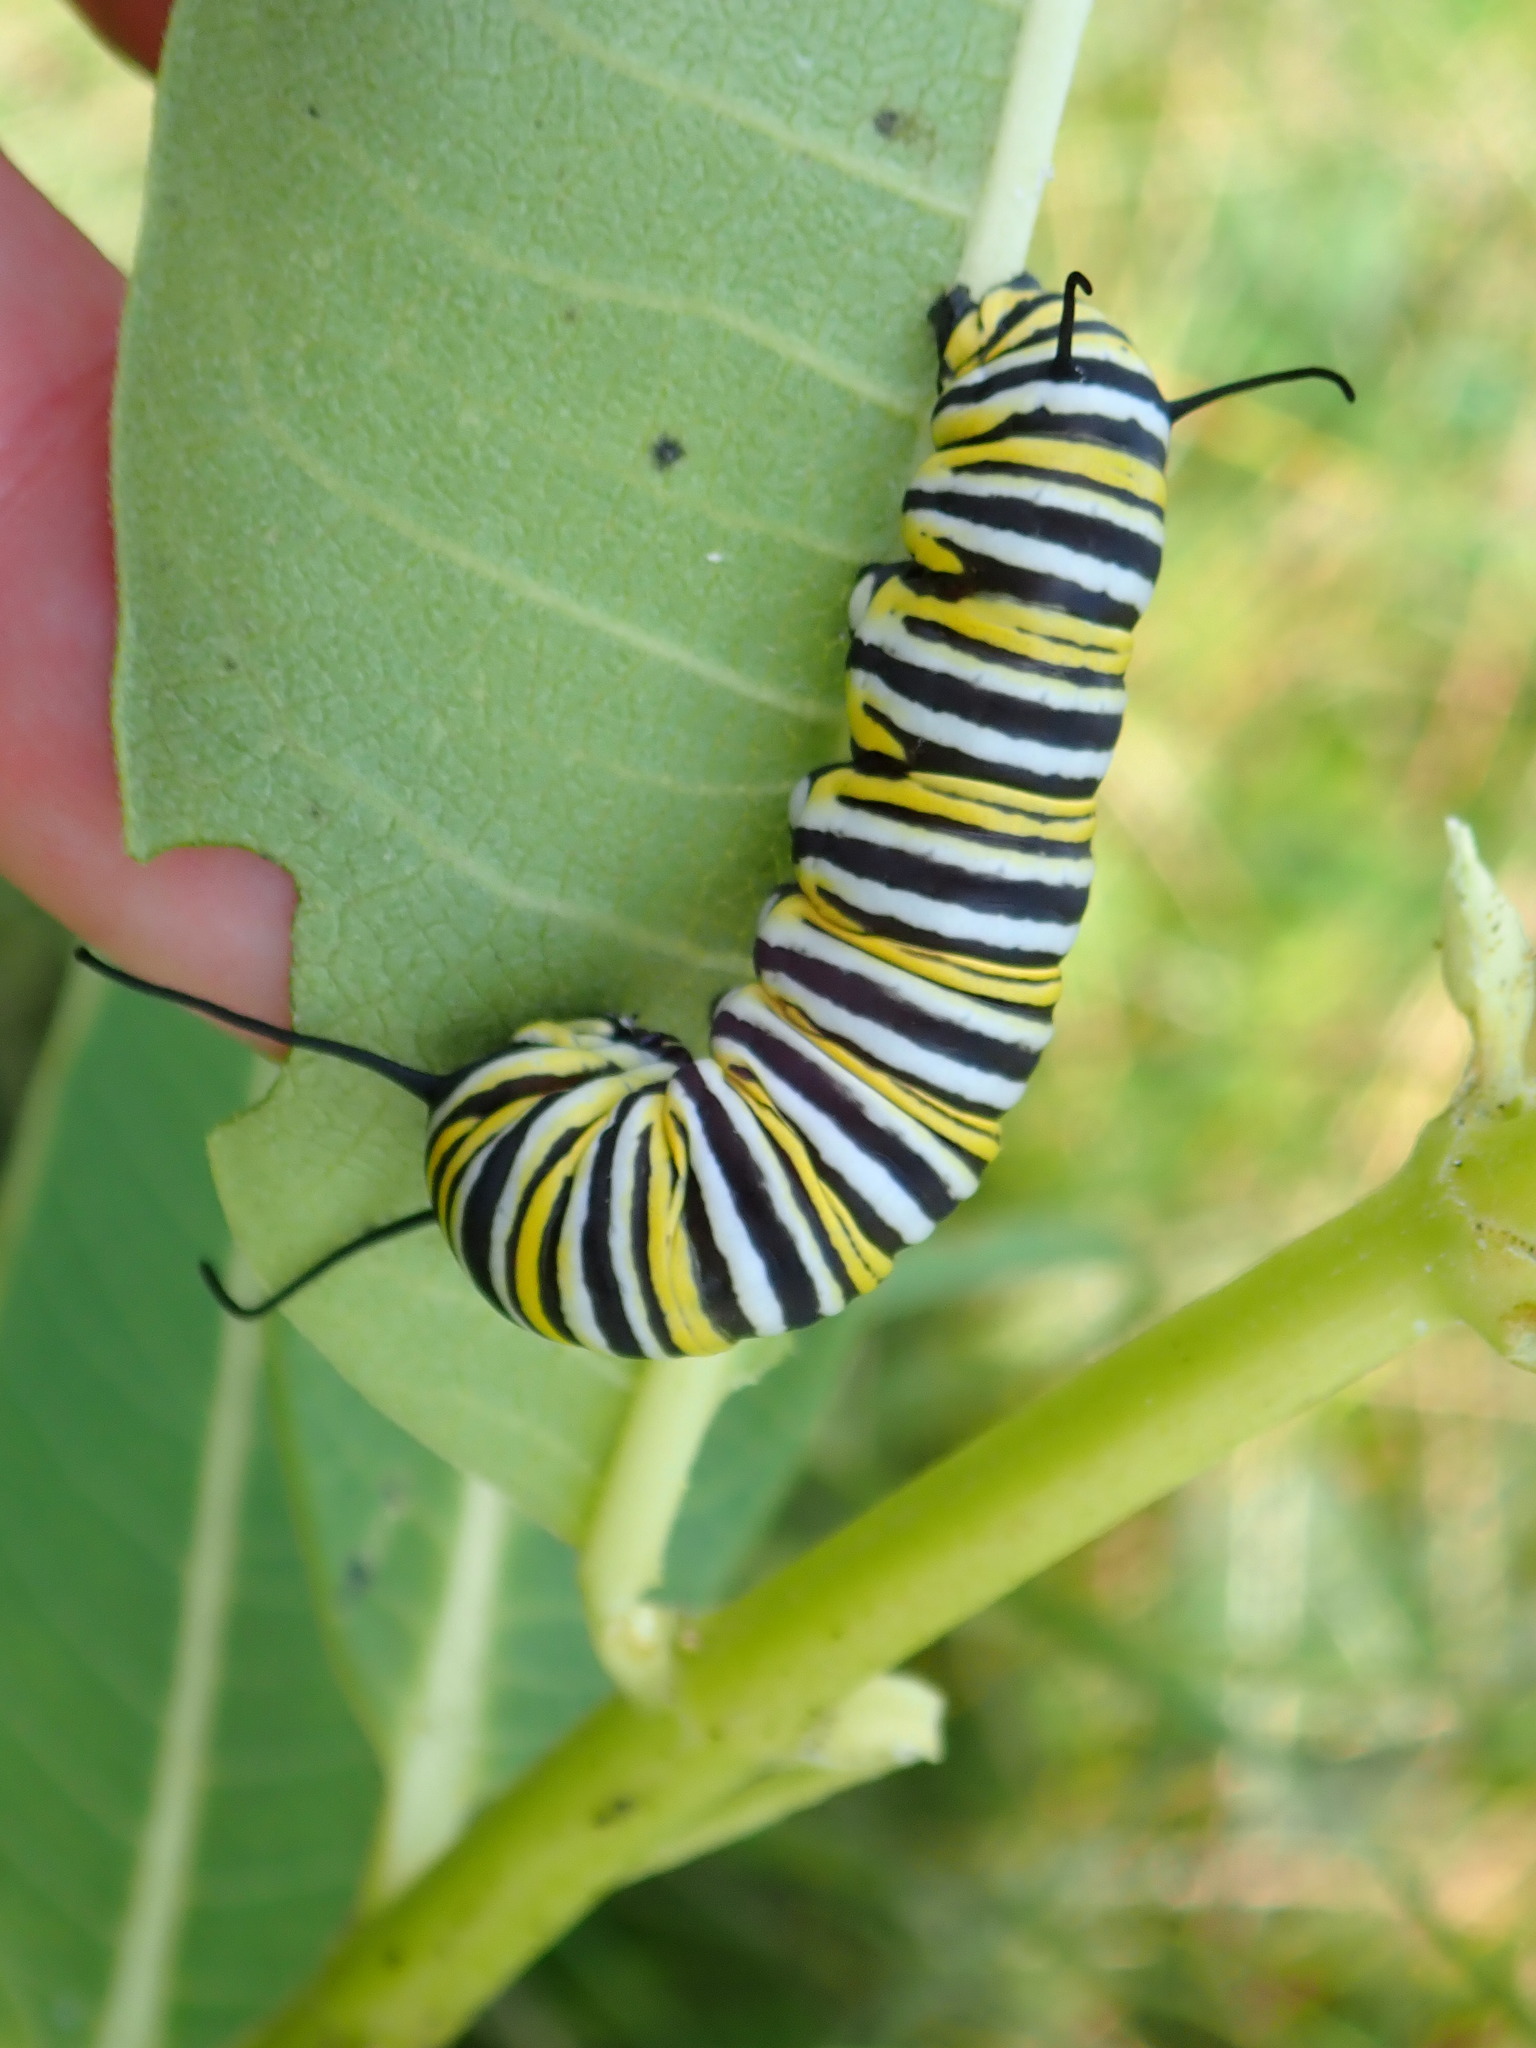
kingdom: Animalia
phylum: Arthropoda
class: Insecta
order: Lepidoptera
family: Nymphalidae
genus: Danaus
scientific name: Danaus plexippus
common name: Monarch
